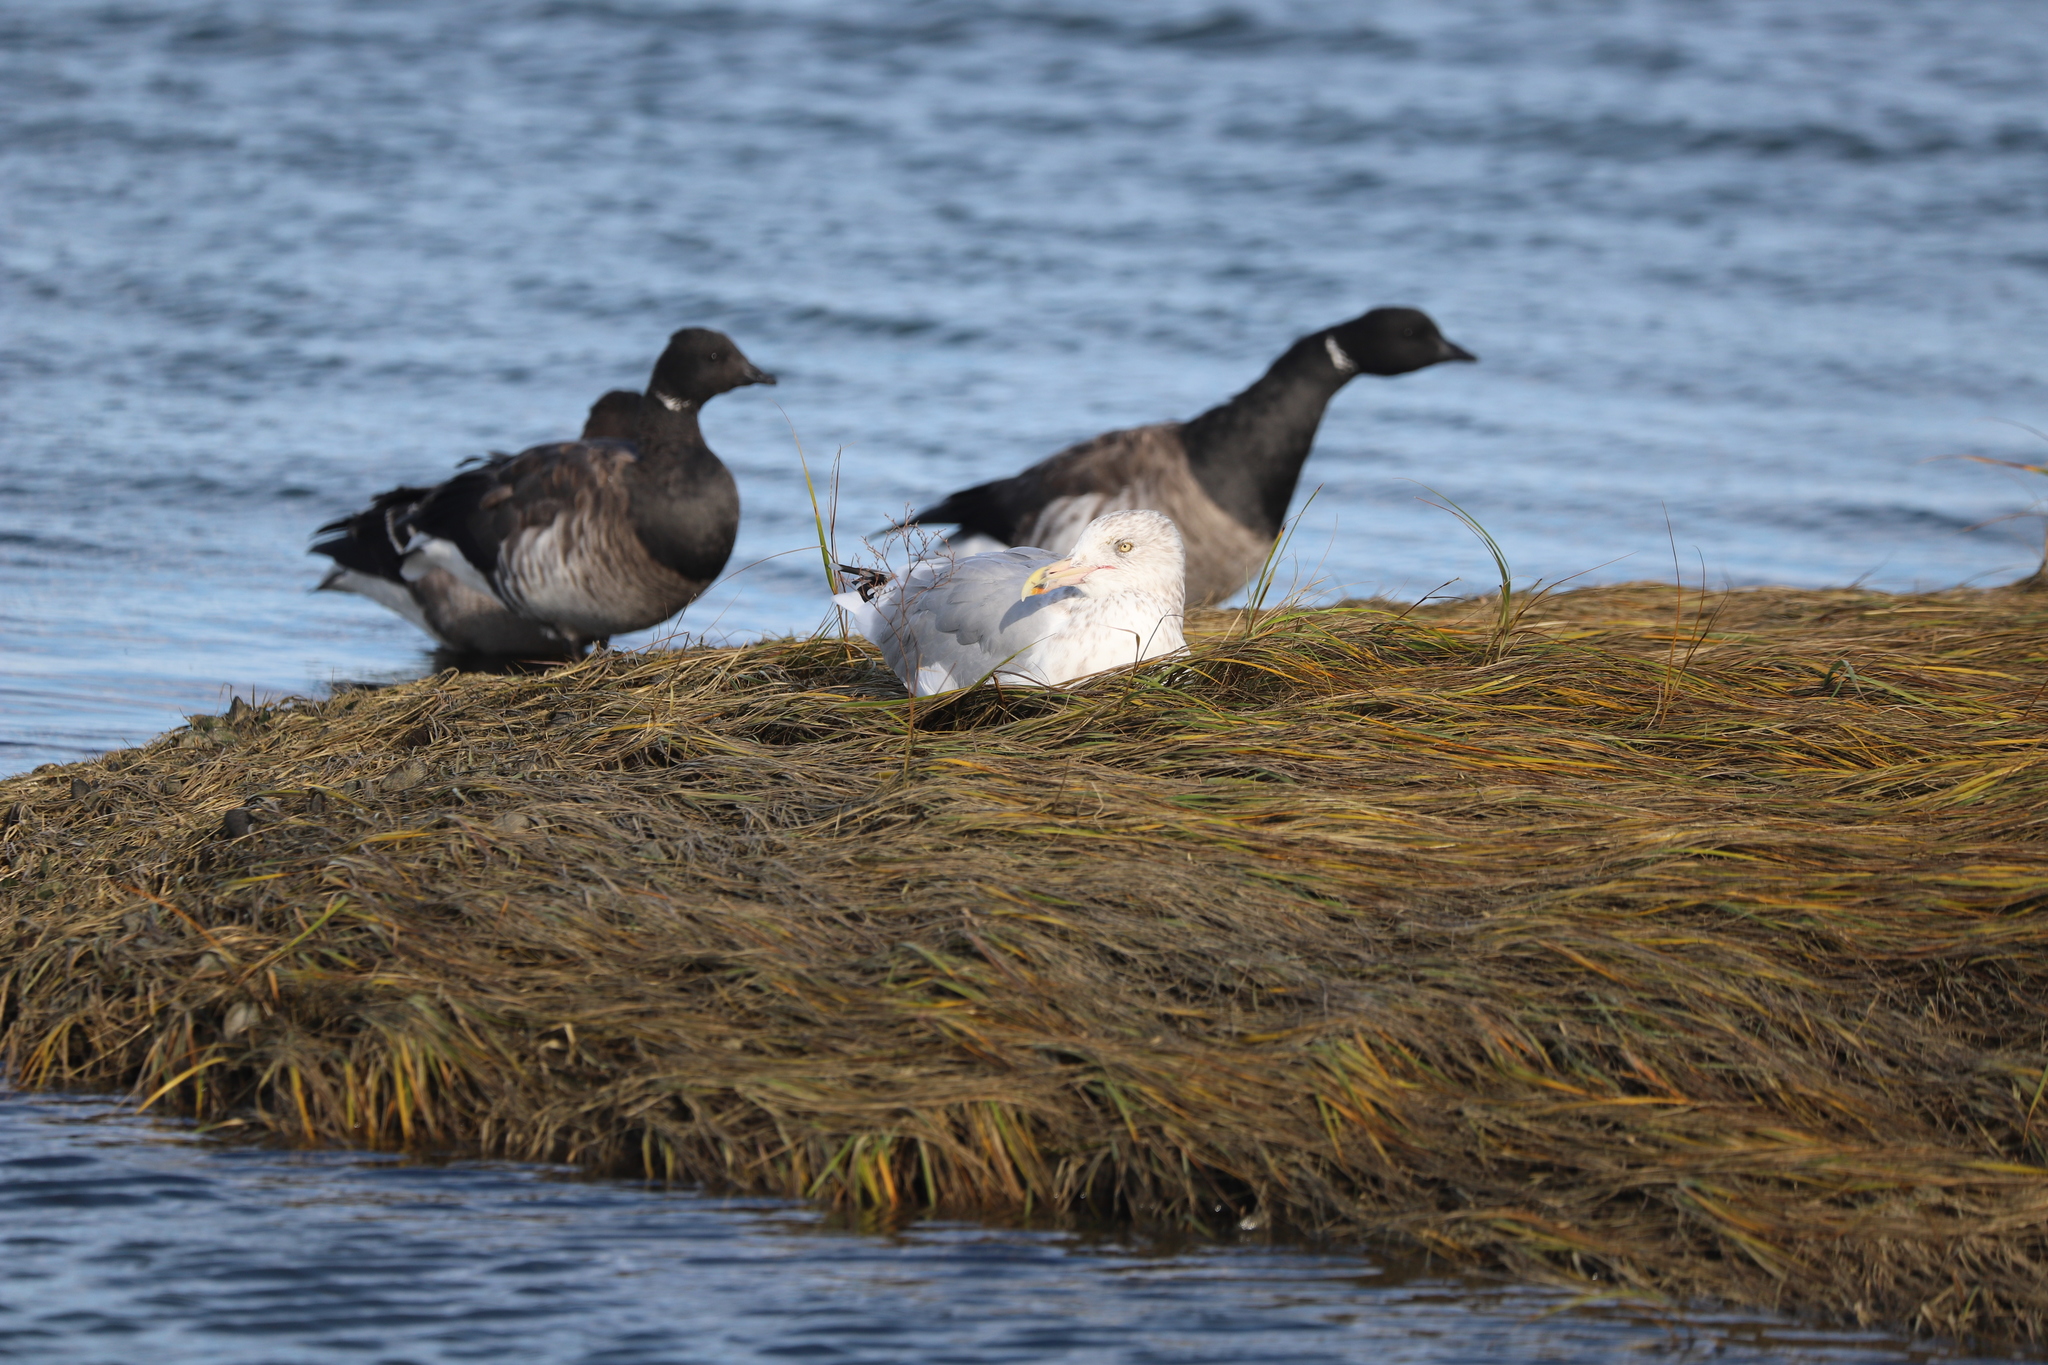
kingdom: Animalia
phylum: Chordata
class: Aves
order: Charadriiformes
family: Laridae
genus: Larus
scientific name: Larus argentatus
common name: Herring gull
